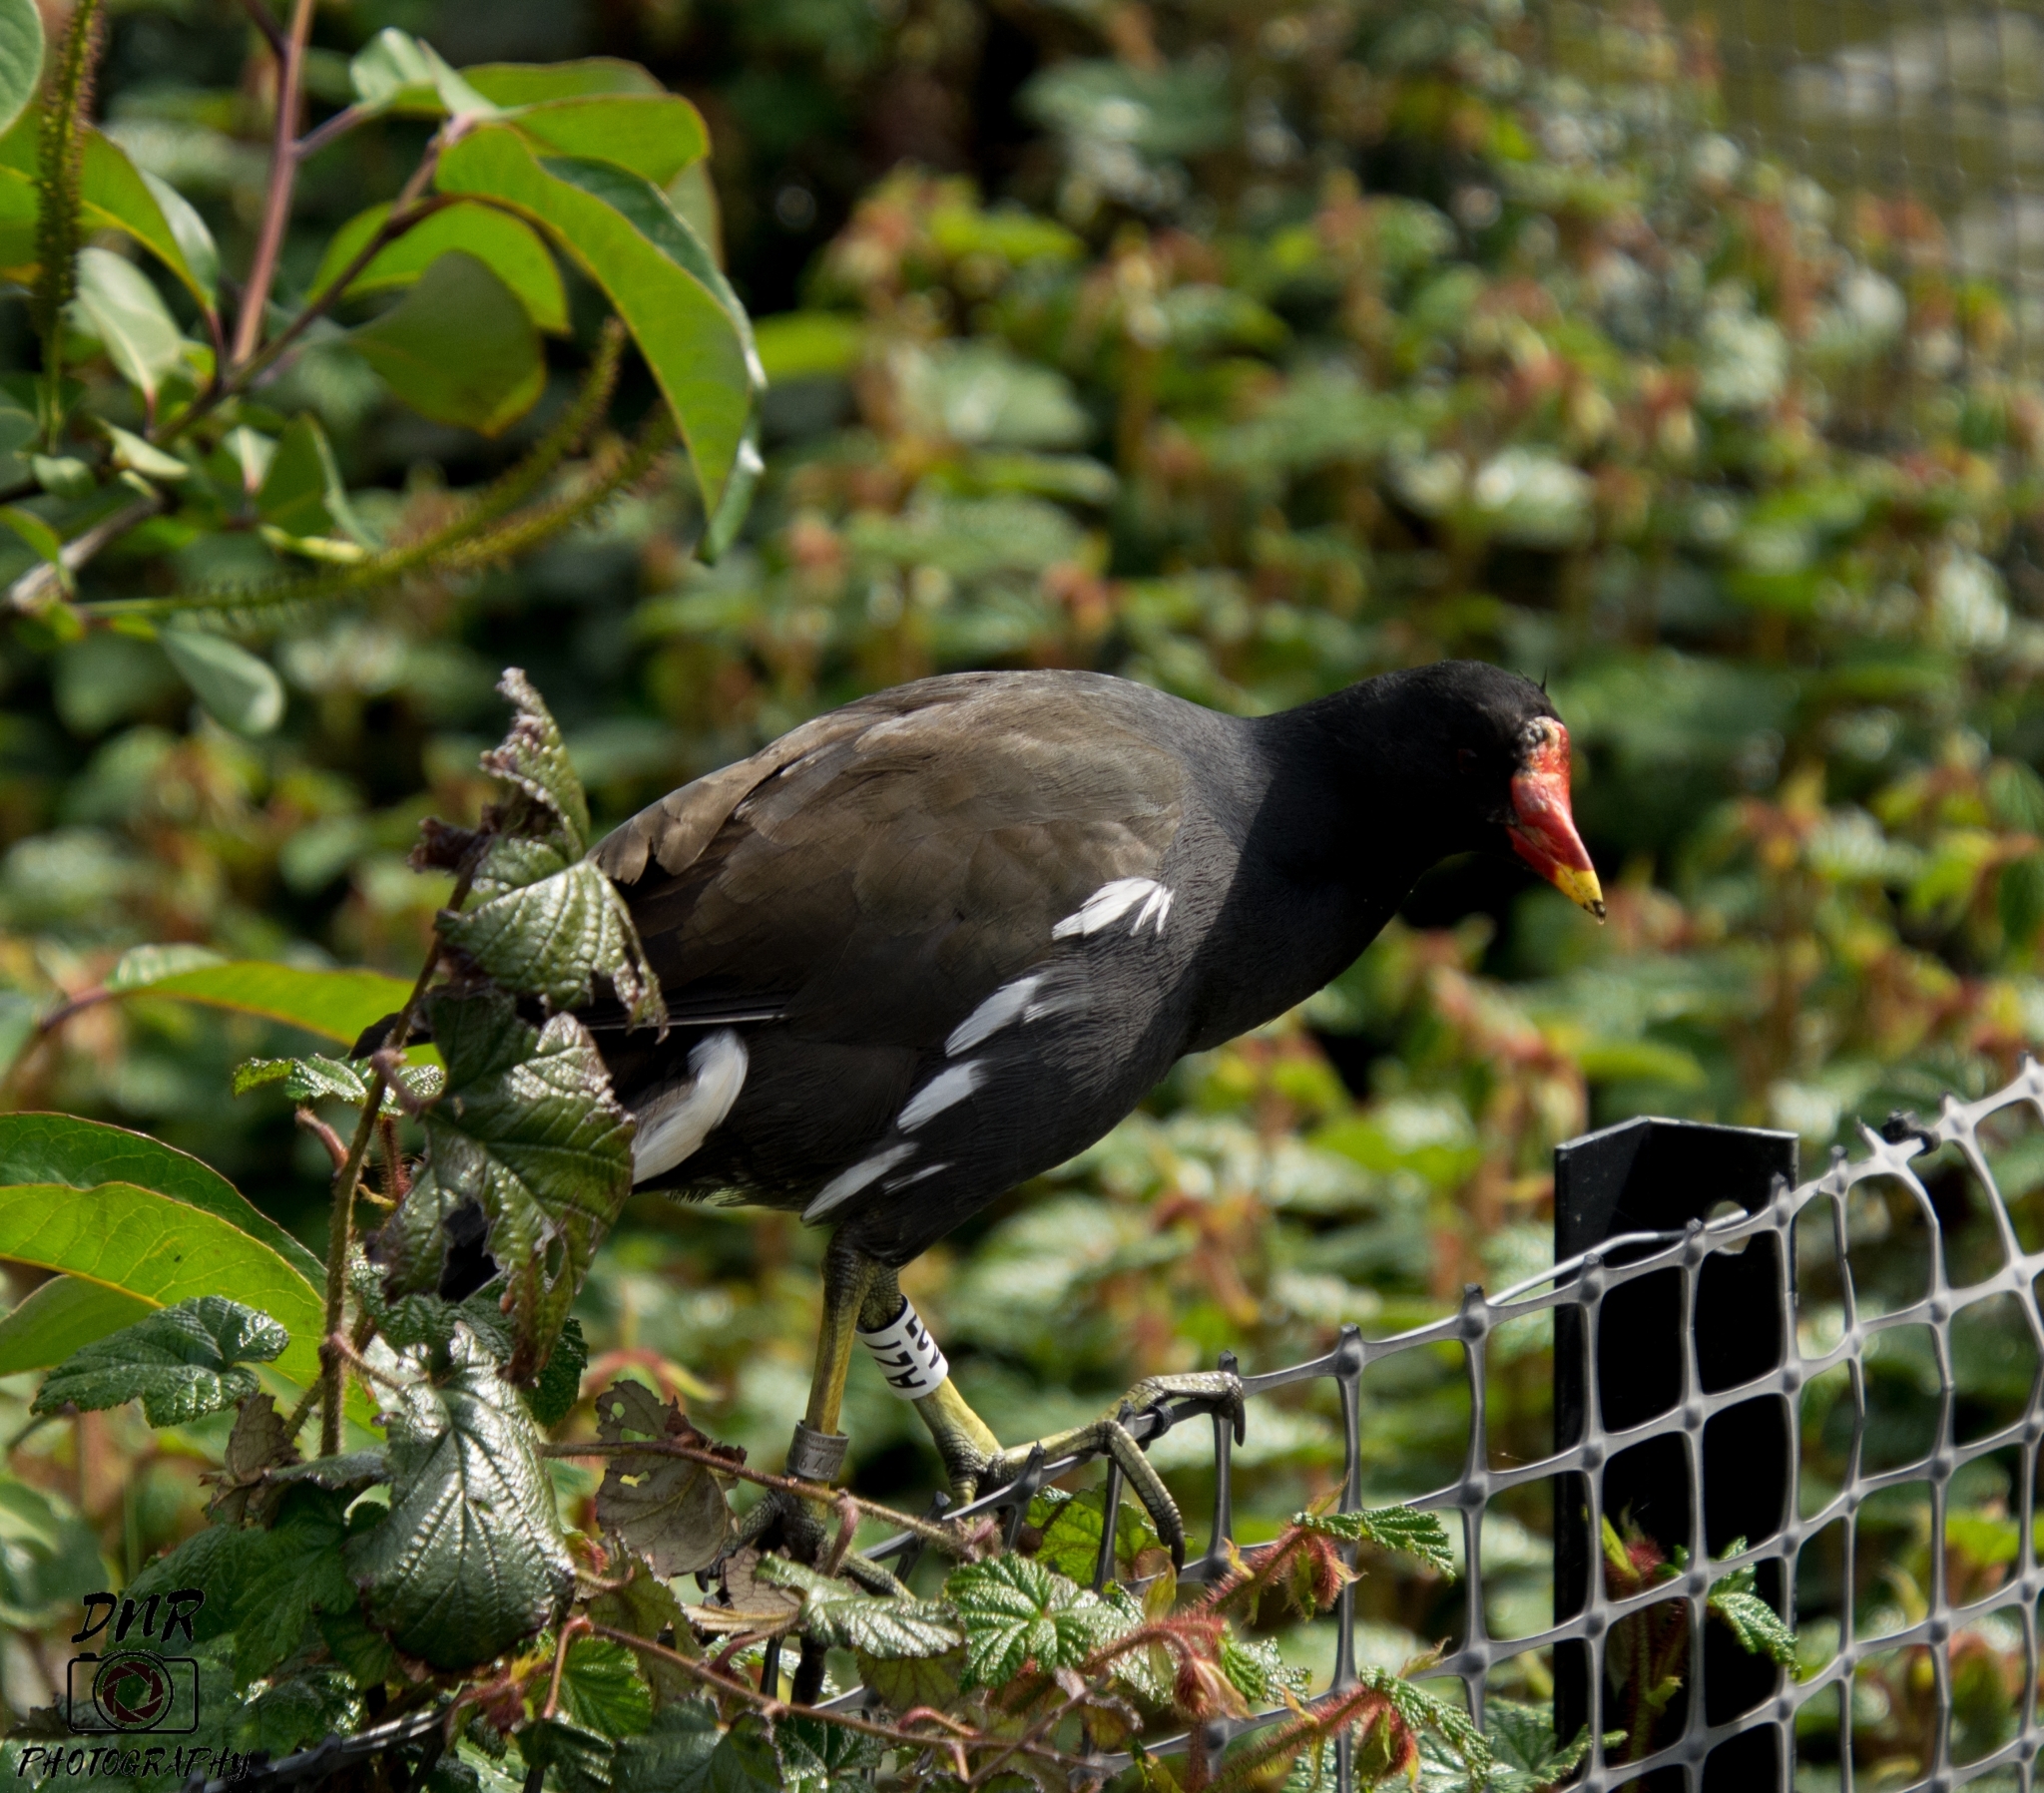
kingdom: Animalia
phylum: Chordata
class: Aves
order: Gruiformes
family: Rallidae
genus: Gallinula
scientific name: Gallinula chloropus
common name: Common moorhen
